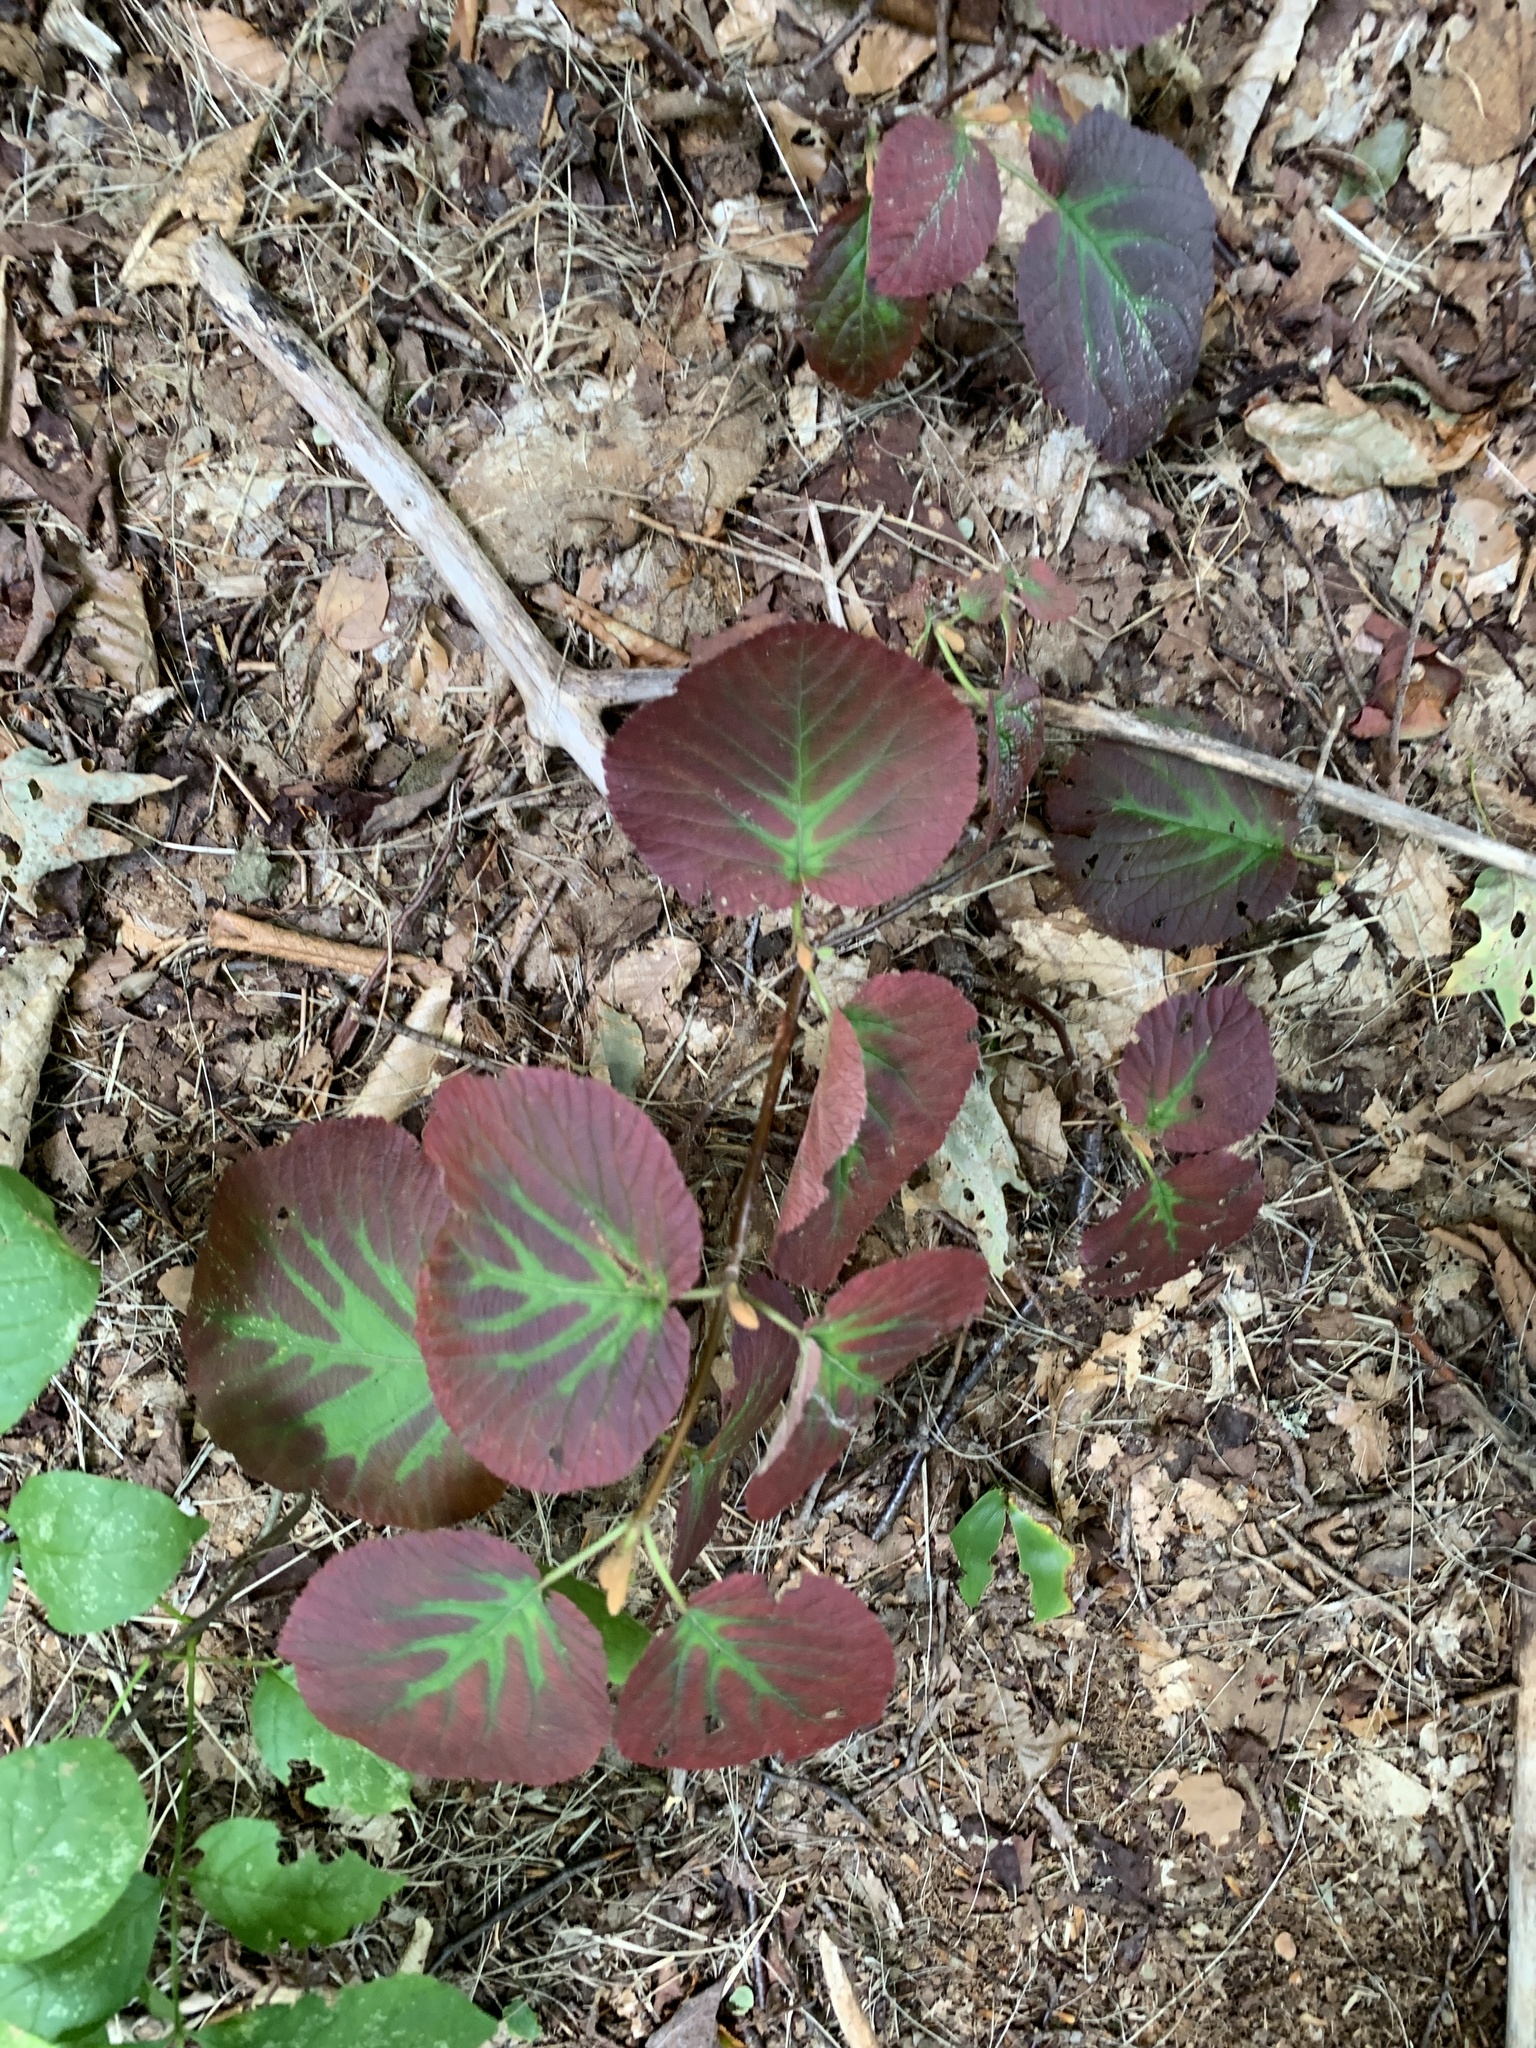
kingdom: Plantae
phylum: Tracheophyta
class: Magnoliopsida
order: Dipsacales
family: Viburnaceae
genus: Viburnum
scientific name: Viburnum lantanoides
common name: Hobblebush
